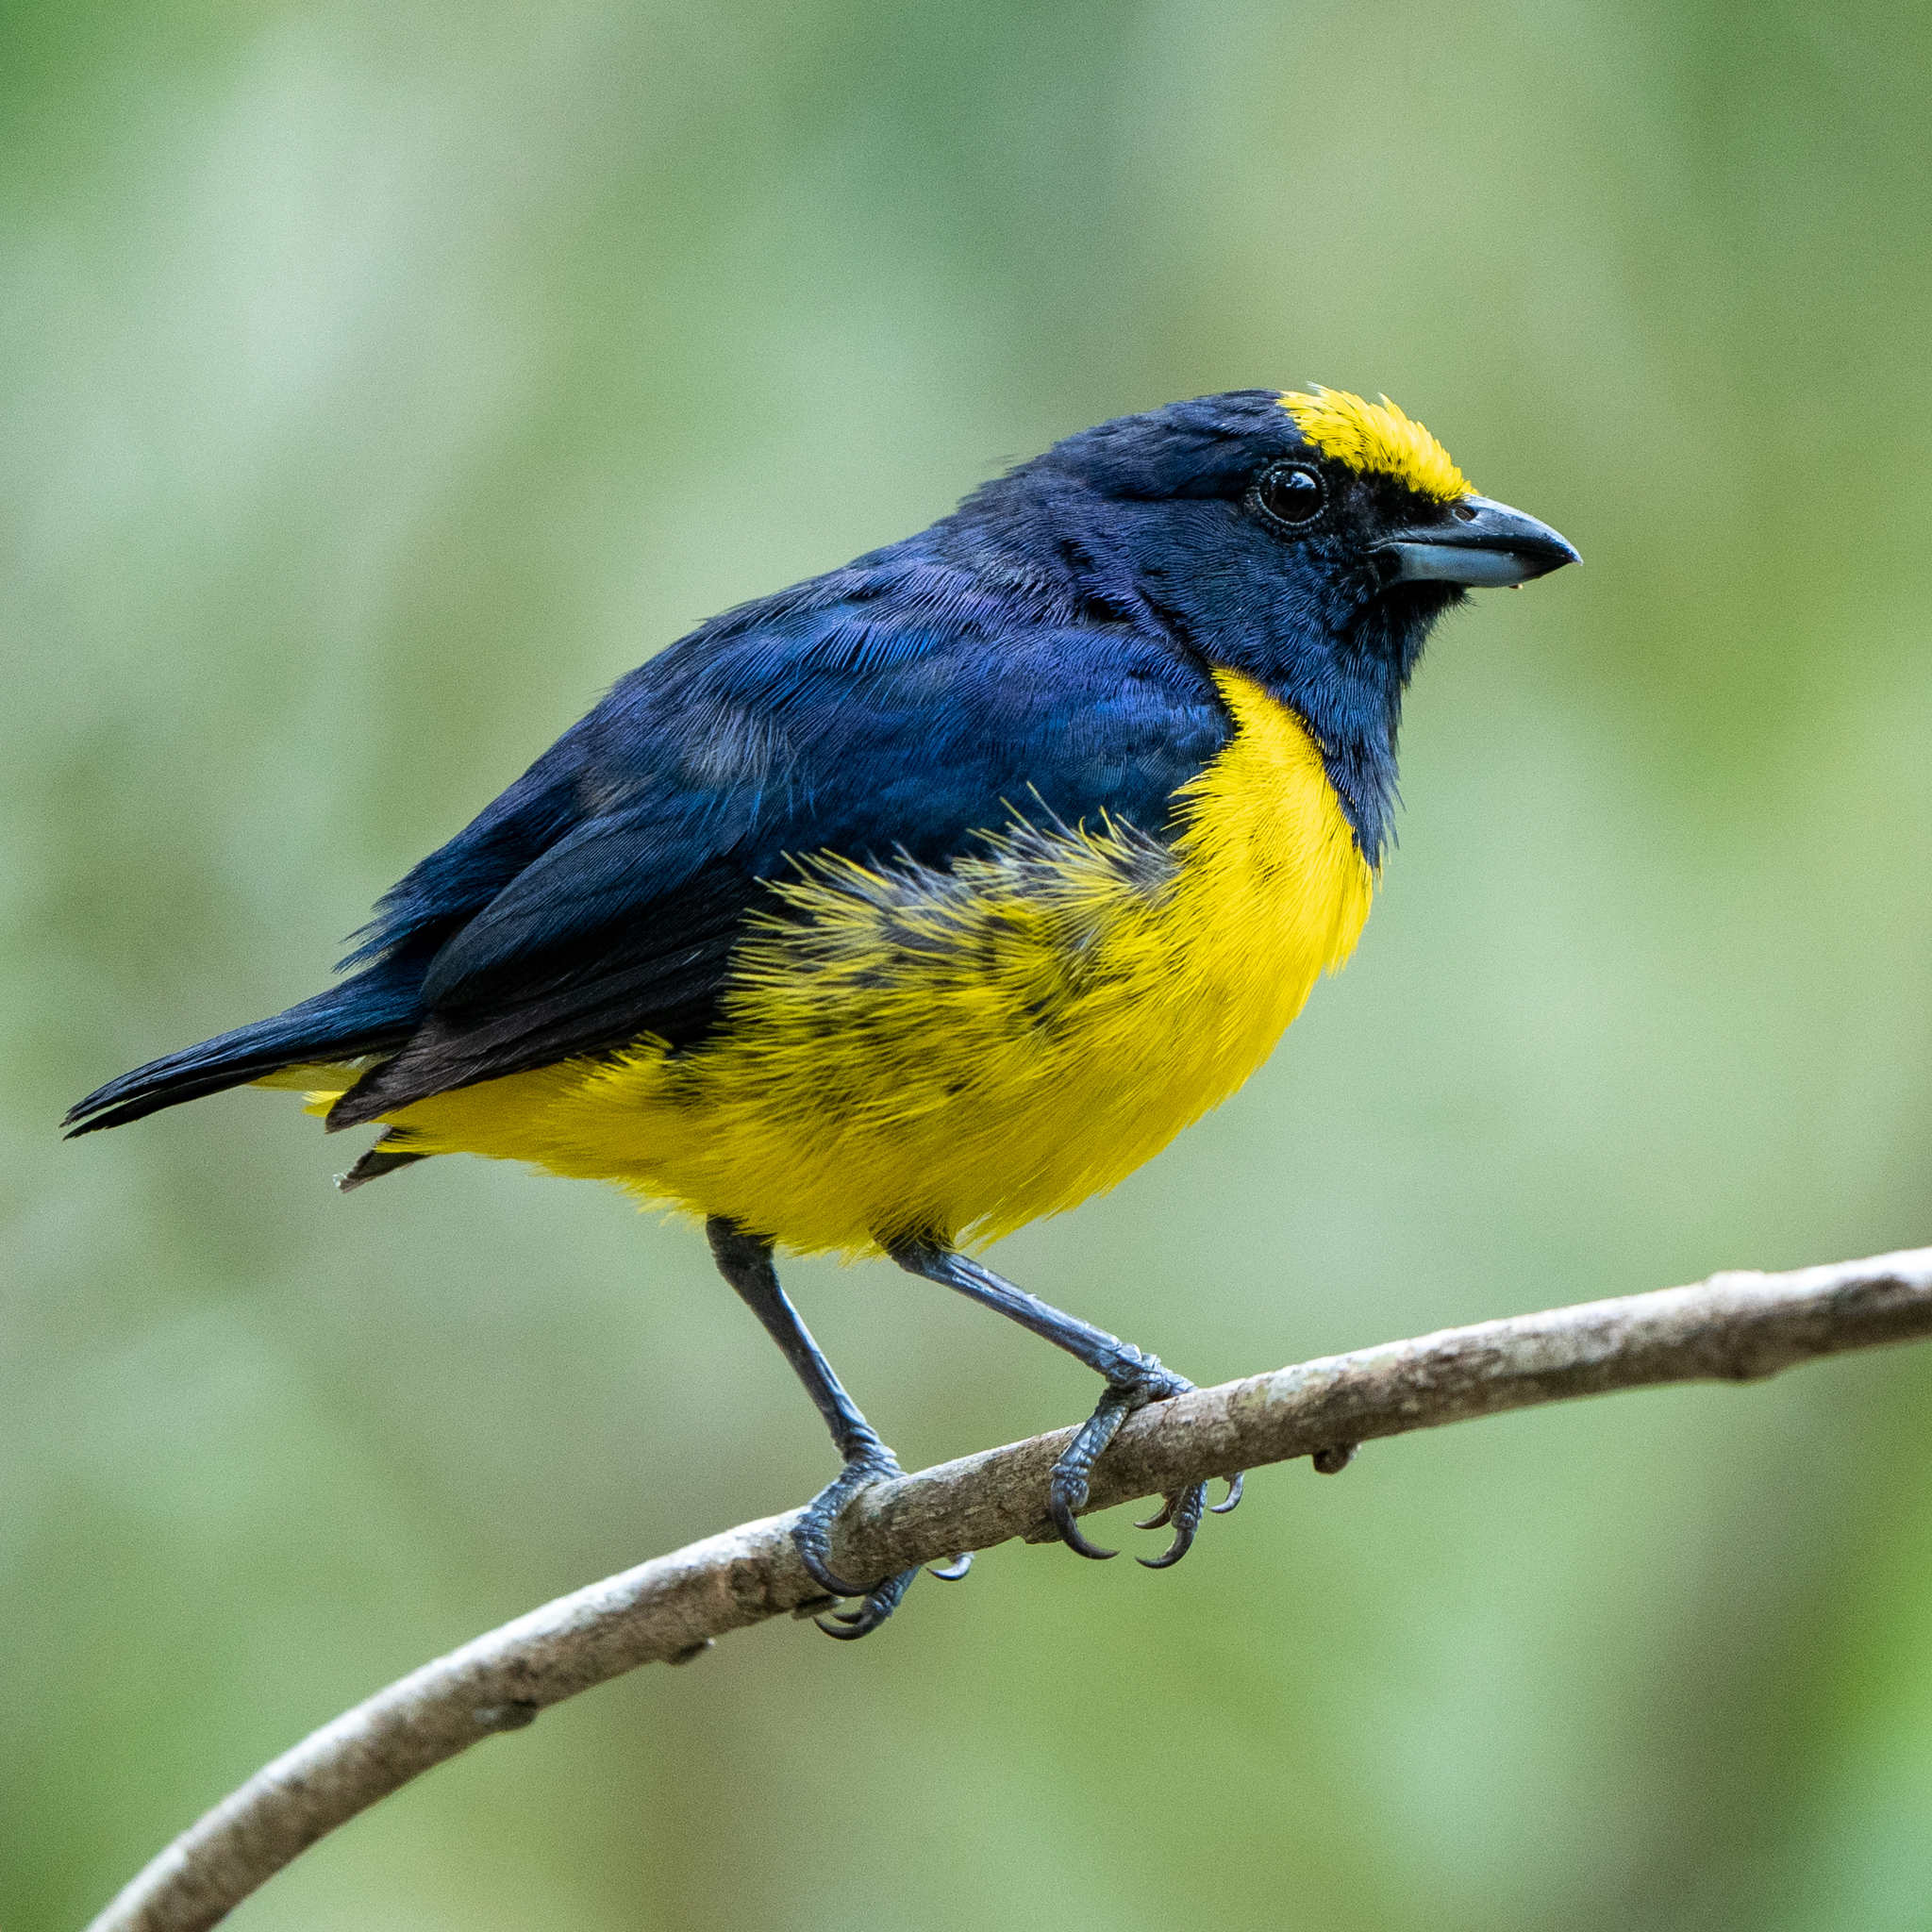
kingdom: Animalia
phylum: Chordata
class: Aves
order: Passeriformes
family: Fringillidae
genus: Euphonia
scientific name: Euphonia imitans
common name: Spot-crowned euphonia
